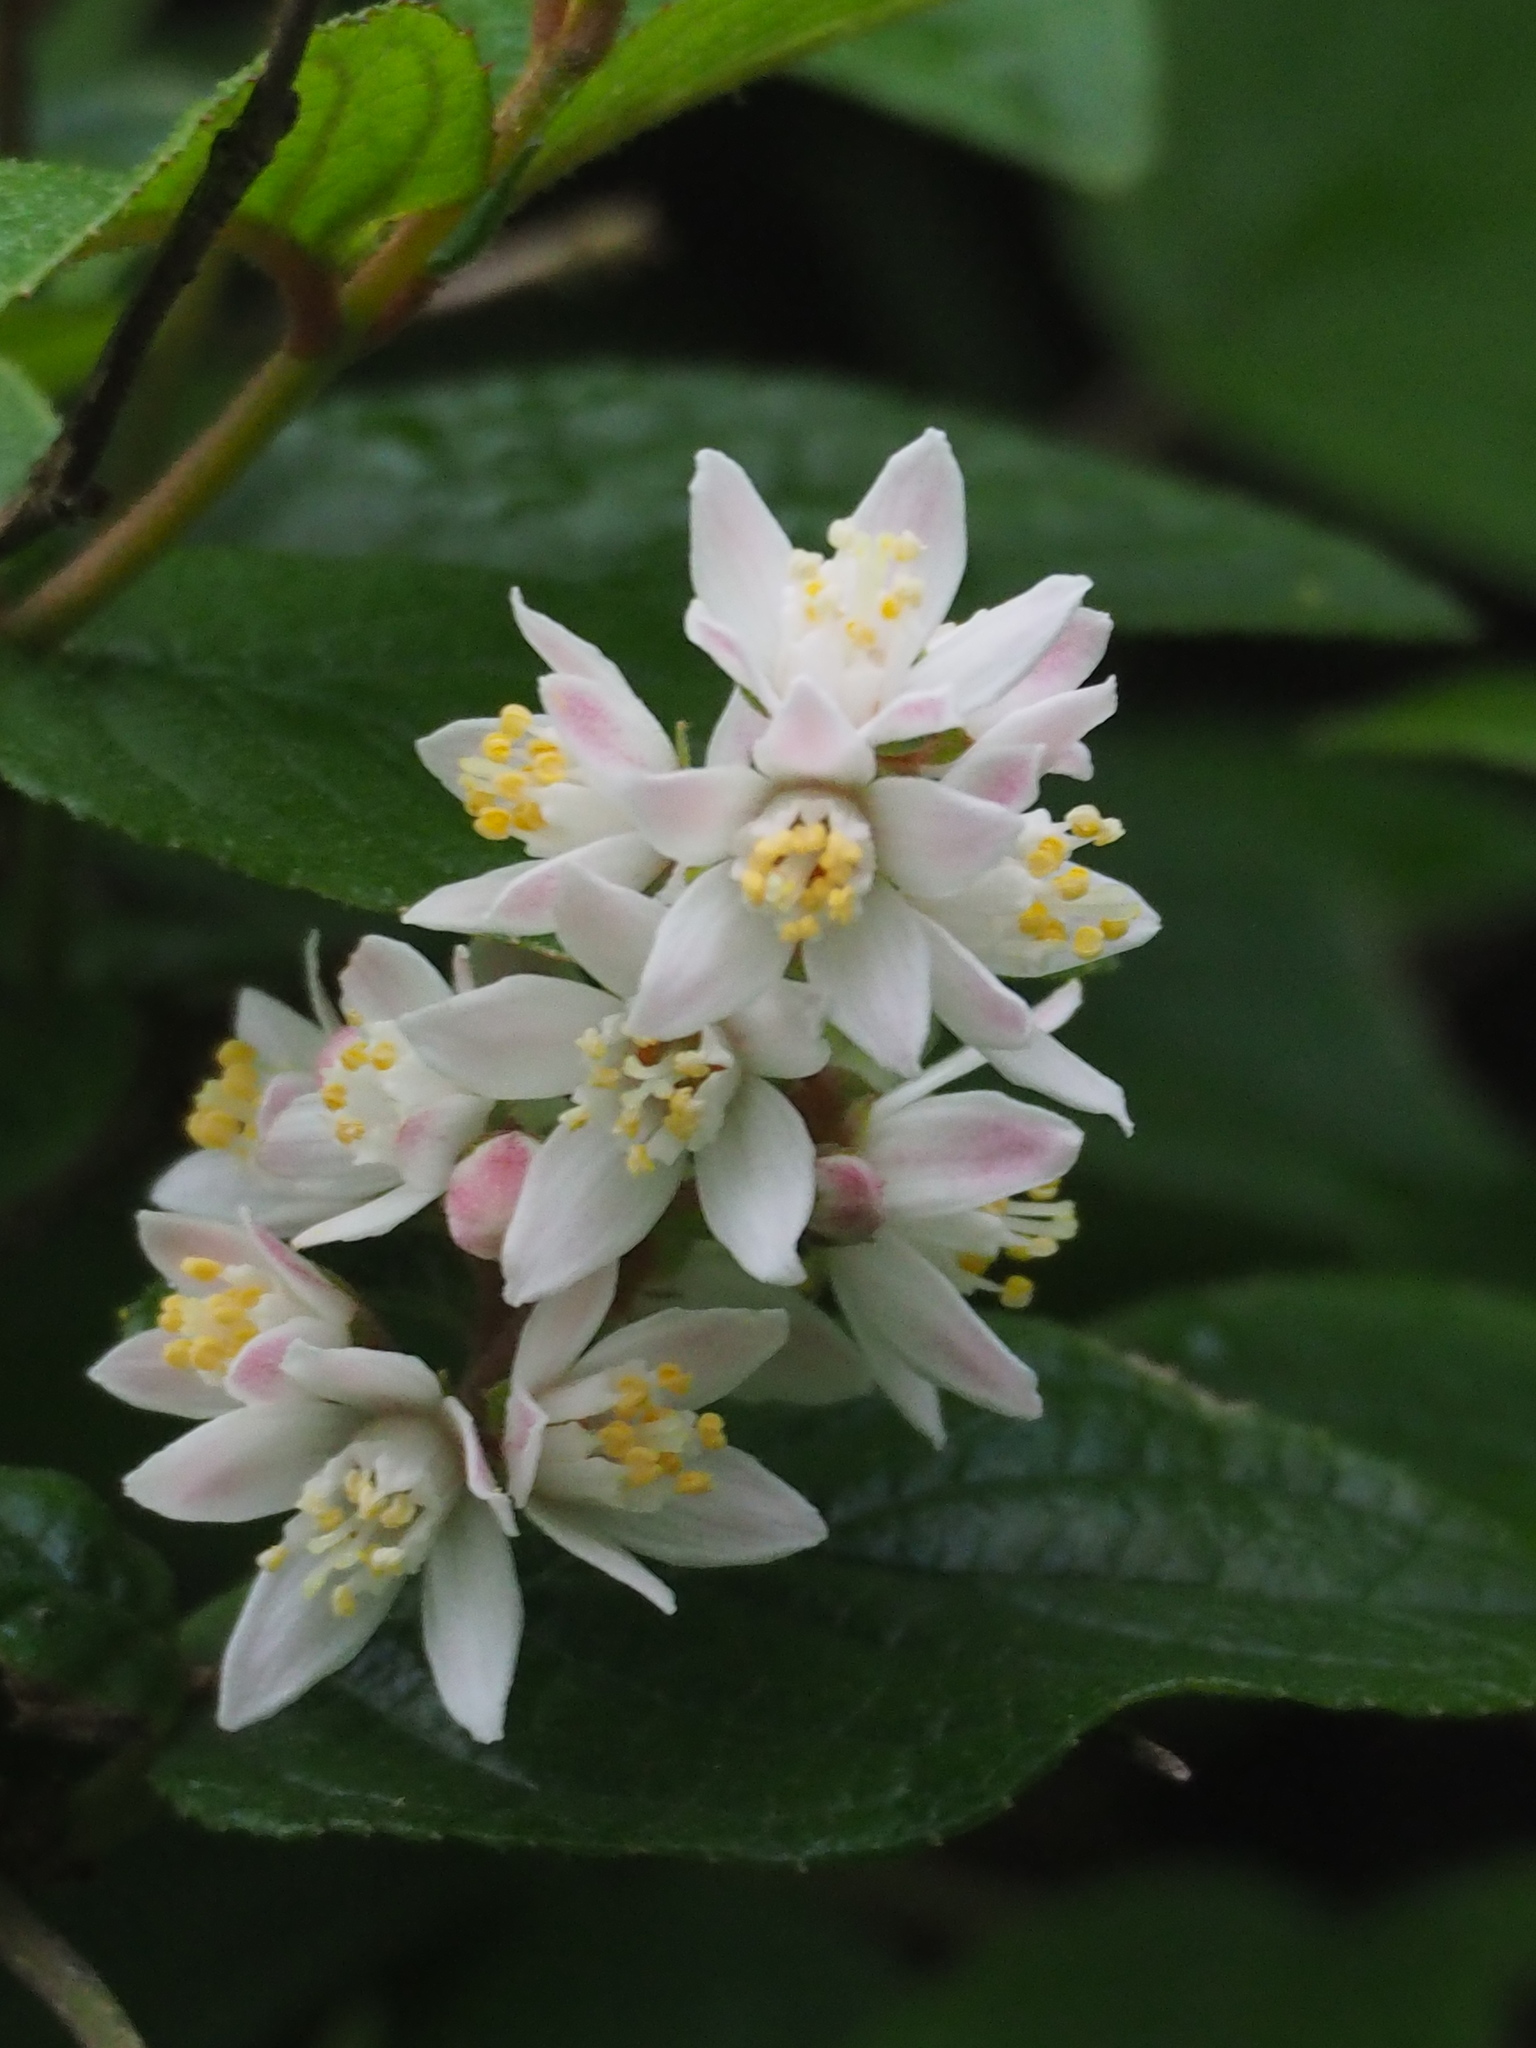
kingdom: Plantae
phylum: Tracheophyta
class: Magnoliopsida
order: Cornales
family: Hydrangeaceae
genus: Deutzia
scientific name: Deutzia taiwanensis
